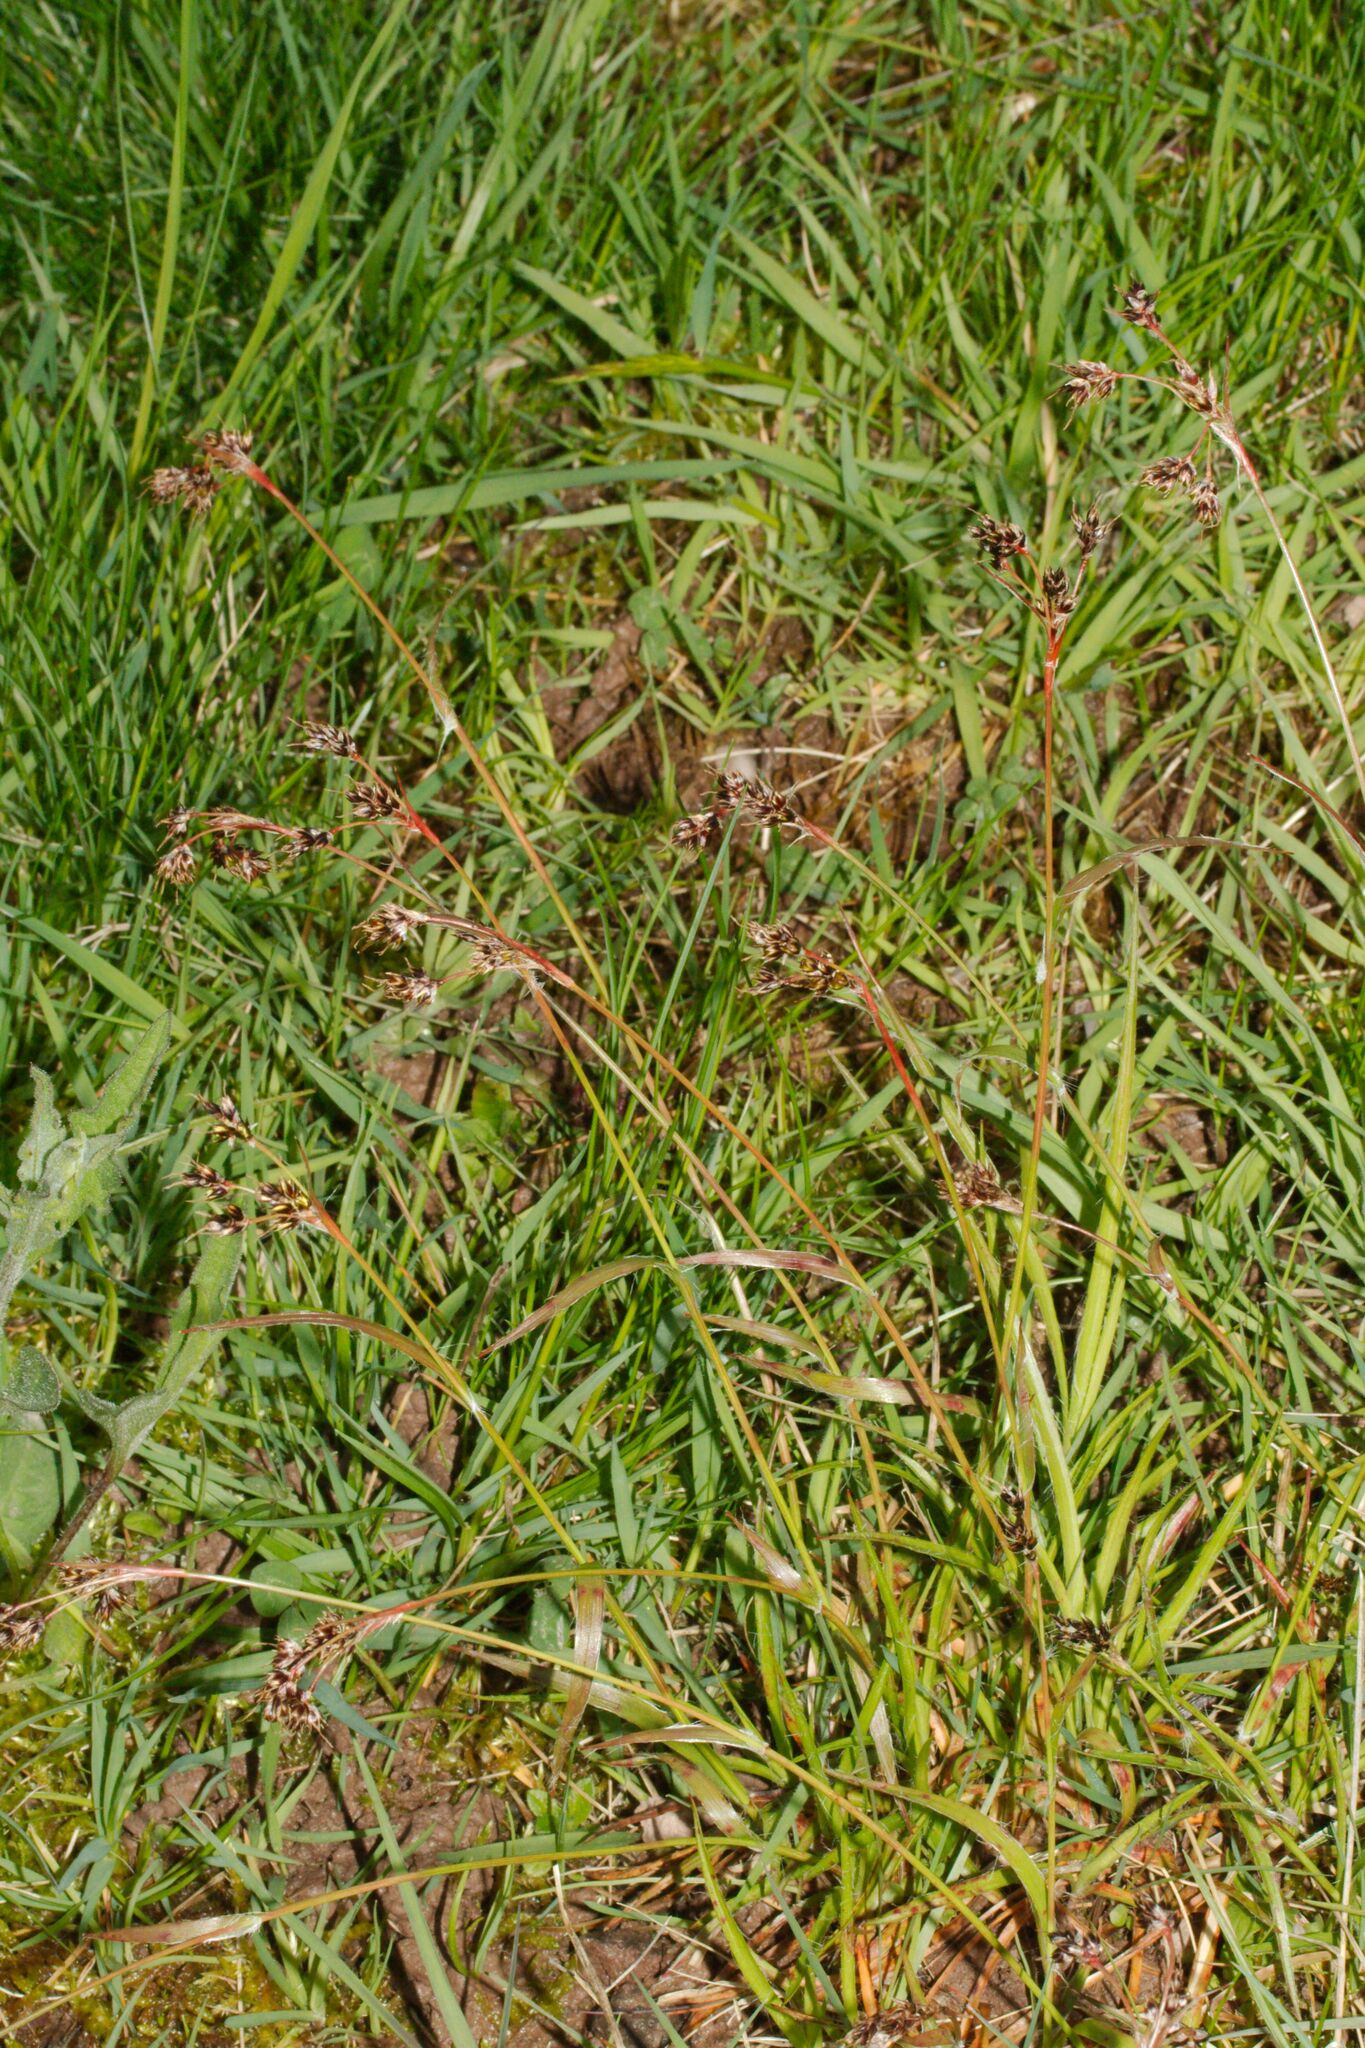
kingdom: Plantae
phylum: Tracheophyta
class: Liliopsida
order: Poales
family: Juncaceae
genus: Luzula
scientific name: Luzula campestris
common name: Field wood-rush
